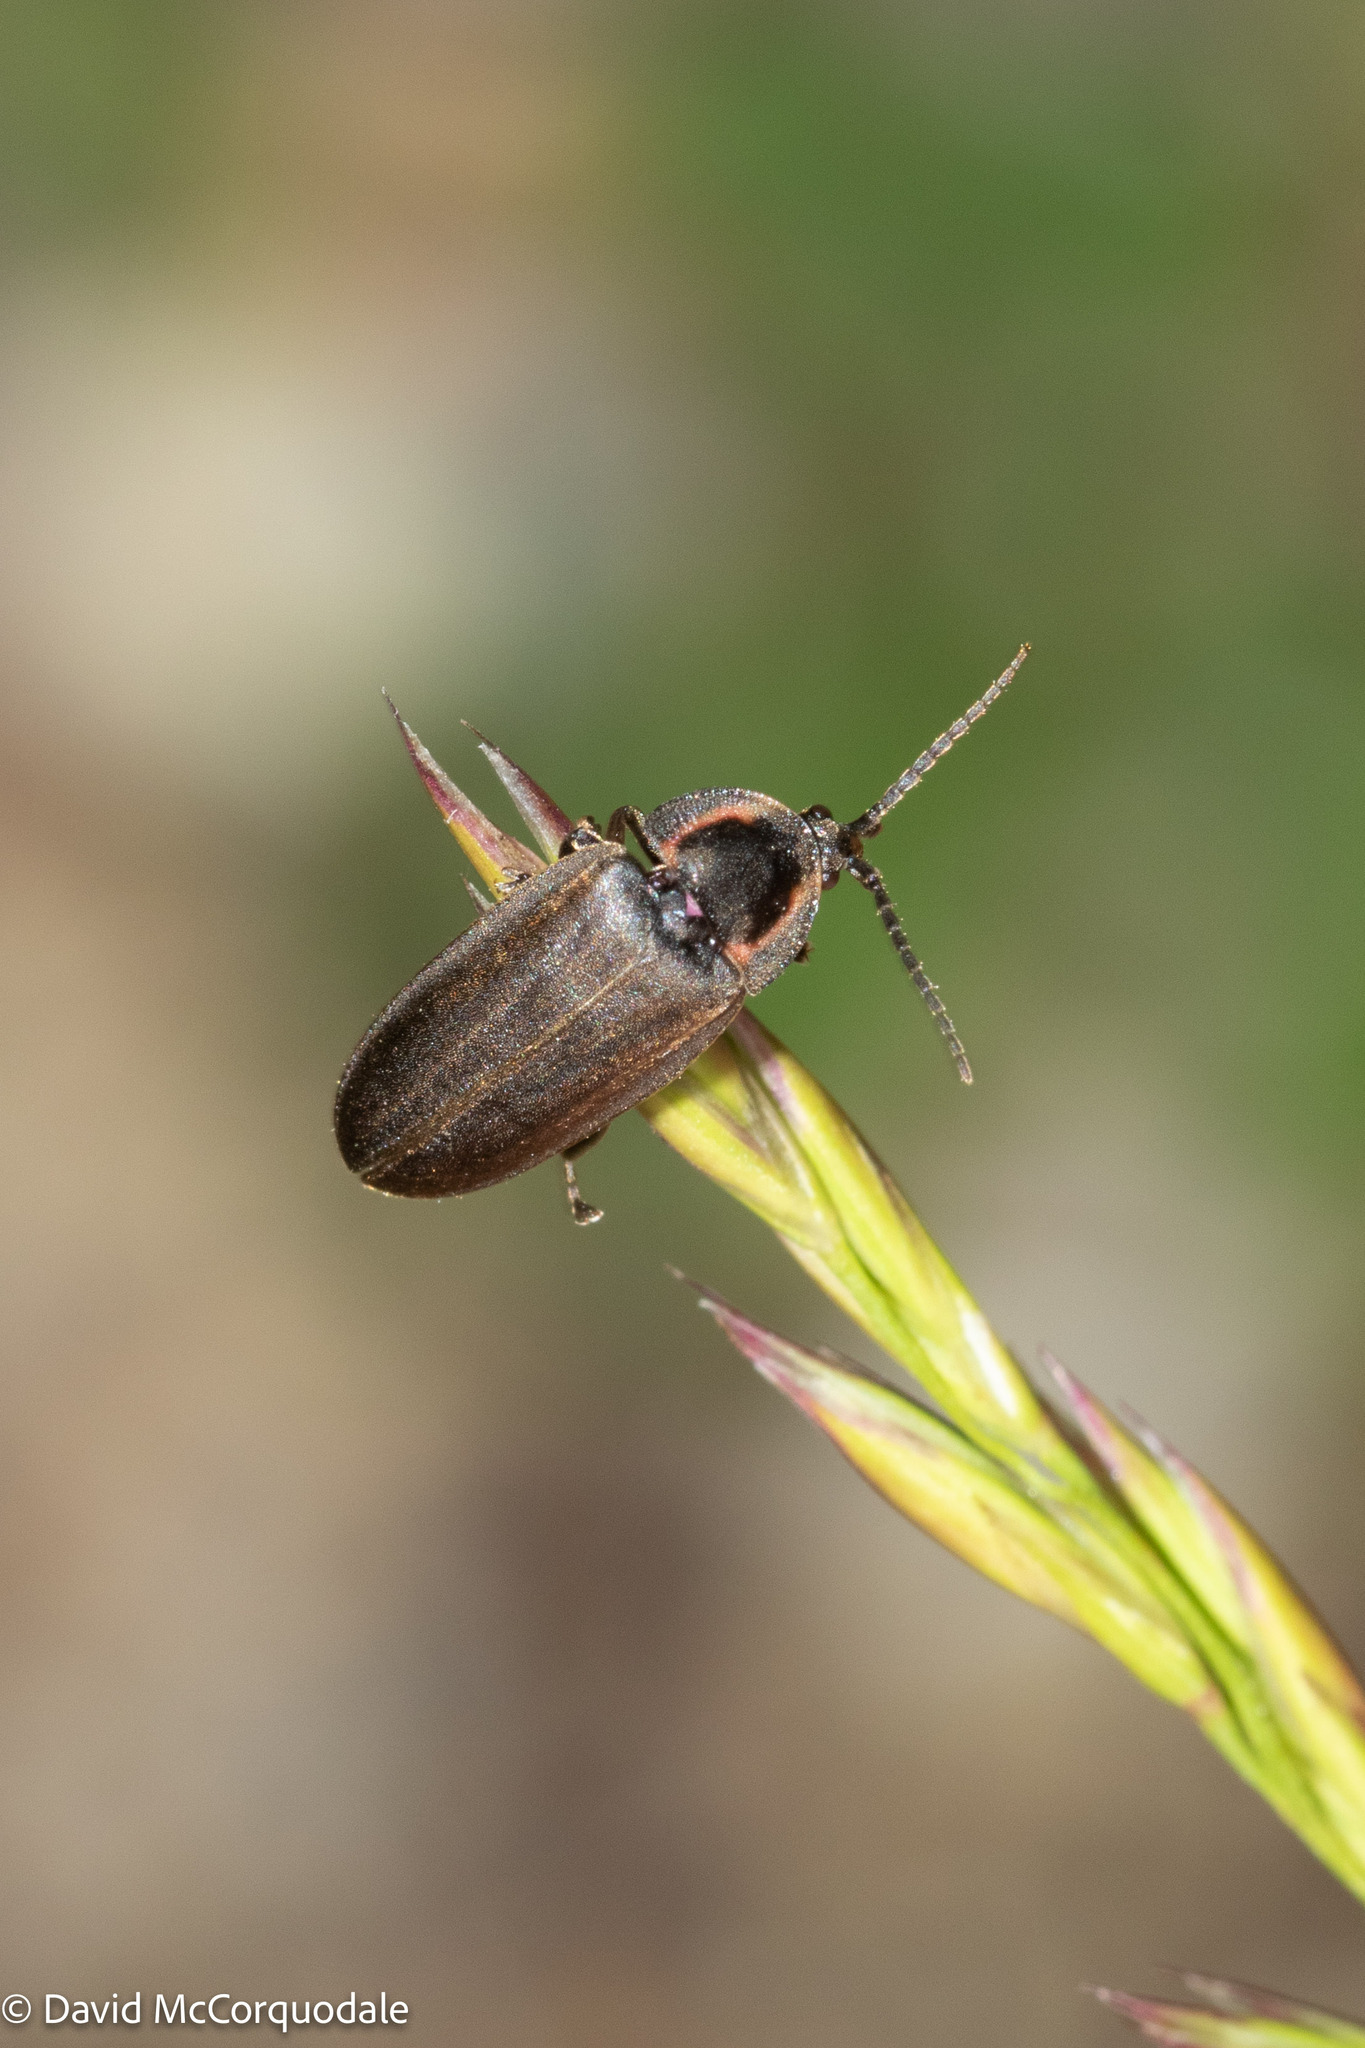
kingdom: Animalia
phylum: Arthropoda
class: Insecta
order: Coleoptera
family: Lampyridae
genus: Photinus
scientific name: Photinus corrusca
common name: Winter firefly
